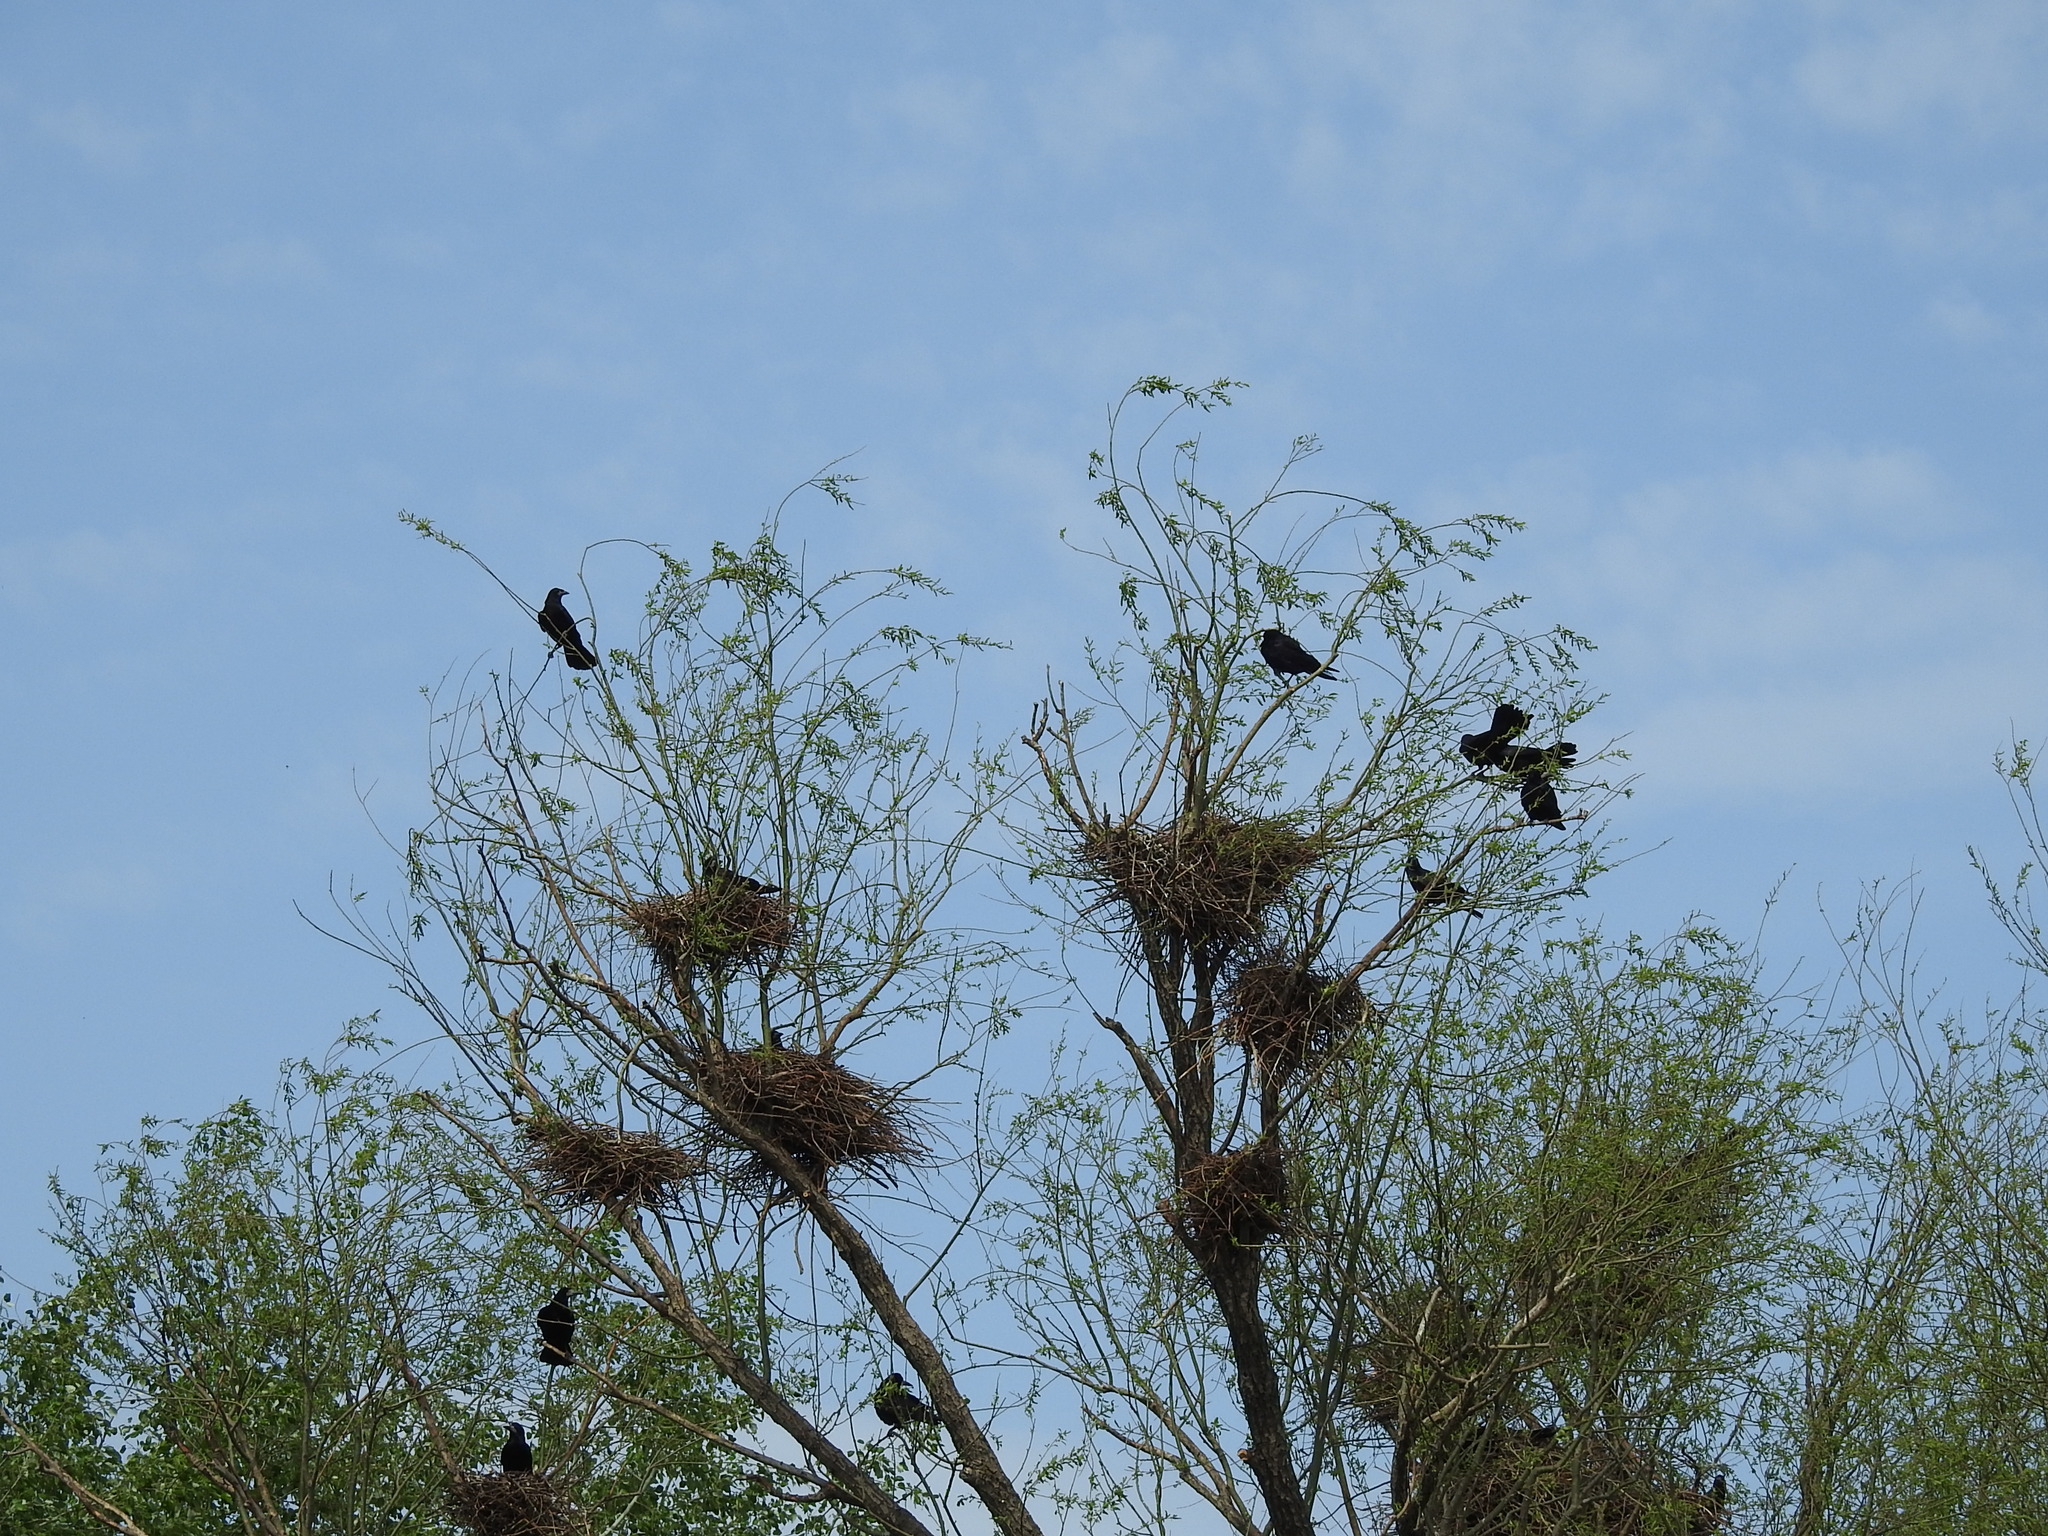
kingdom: Animalia
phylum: Chordata
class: Aves
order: Passeriformes
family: Corvidae
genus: Corvus
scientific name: Corvus frugilegus
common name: Rook
